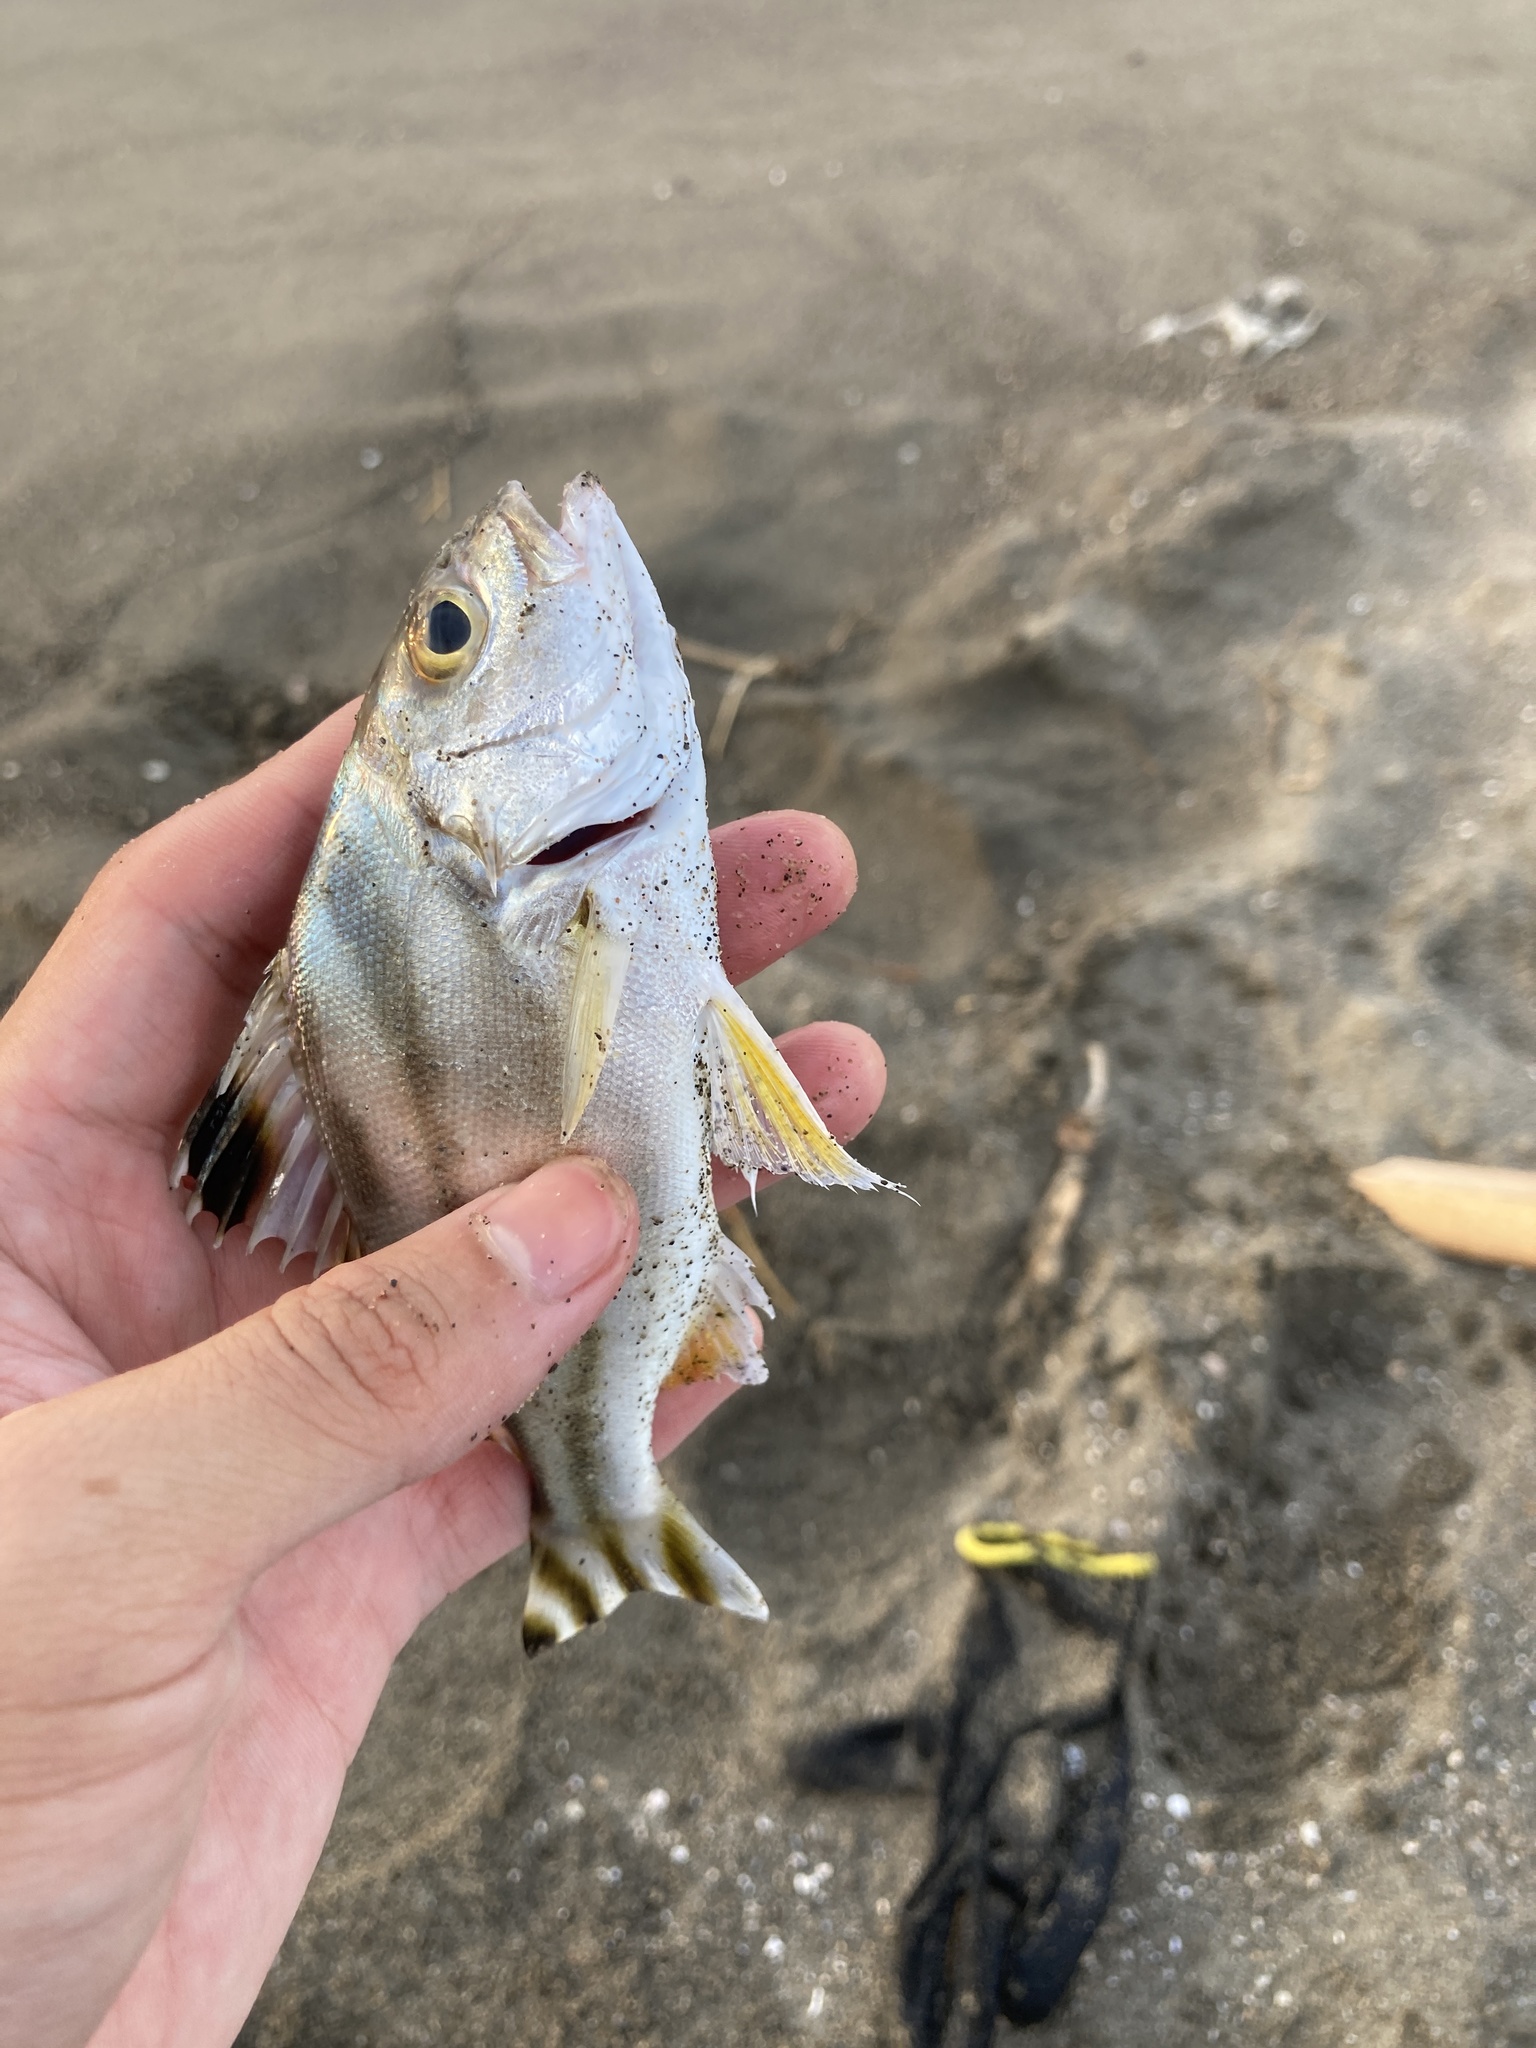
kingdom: Animalia
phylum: Chordata
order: Perciformes
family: Terapontidae
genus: Terapon
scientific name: Terapon jarbua
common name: Jarbua terapon
